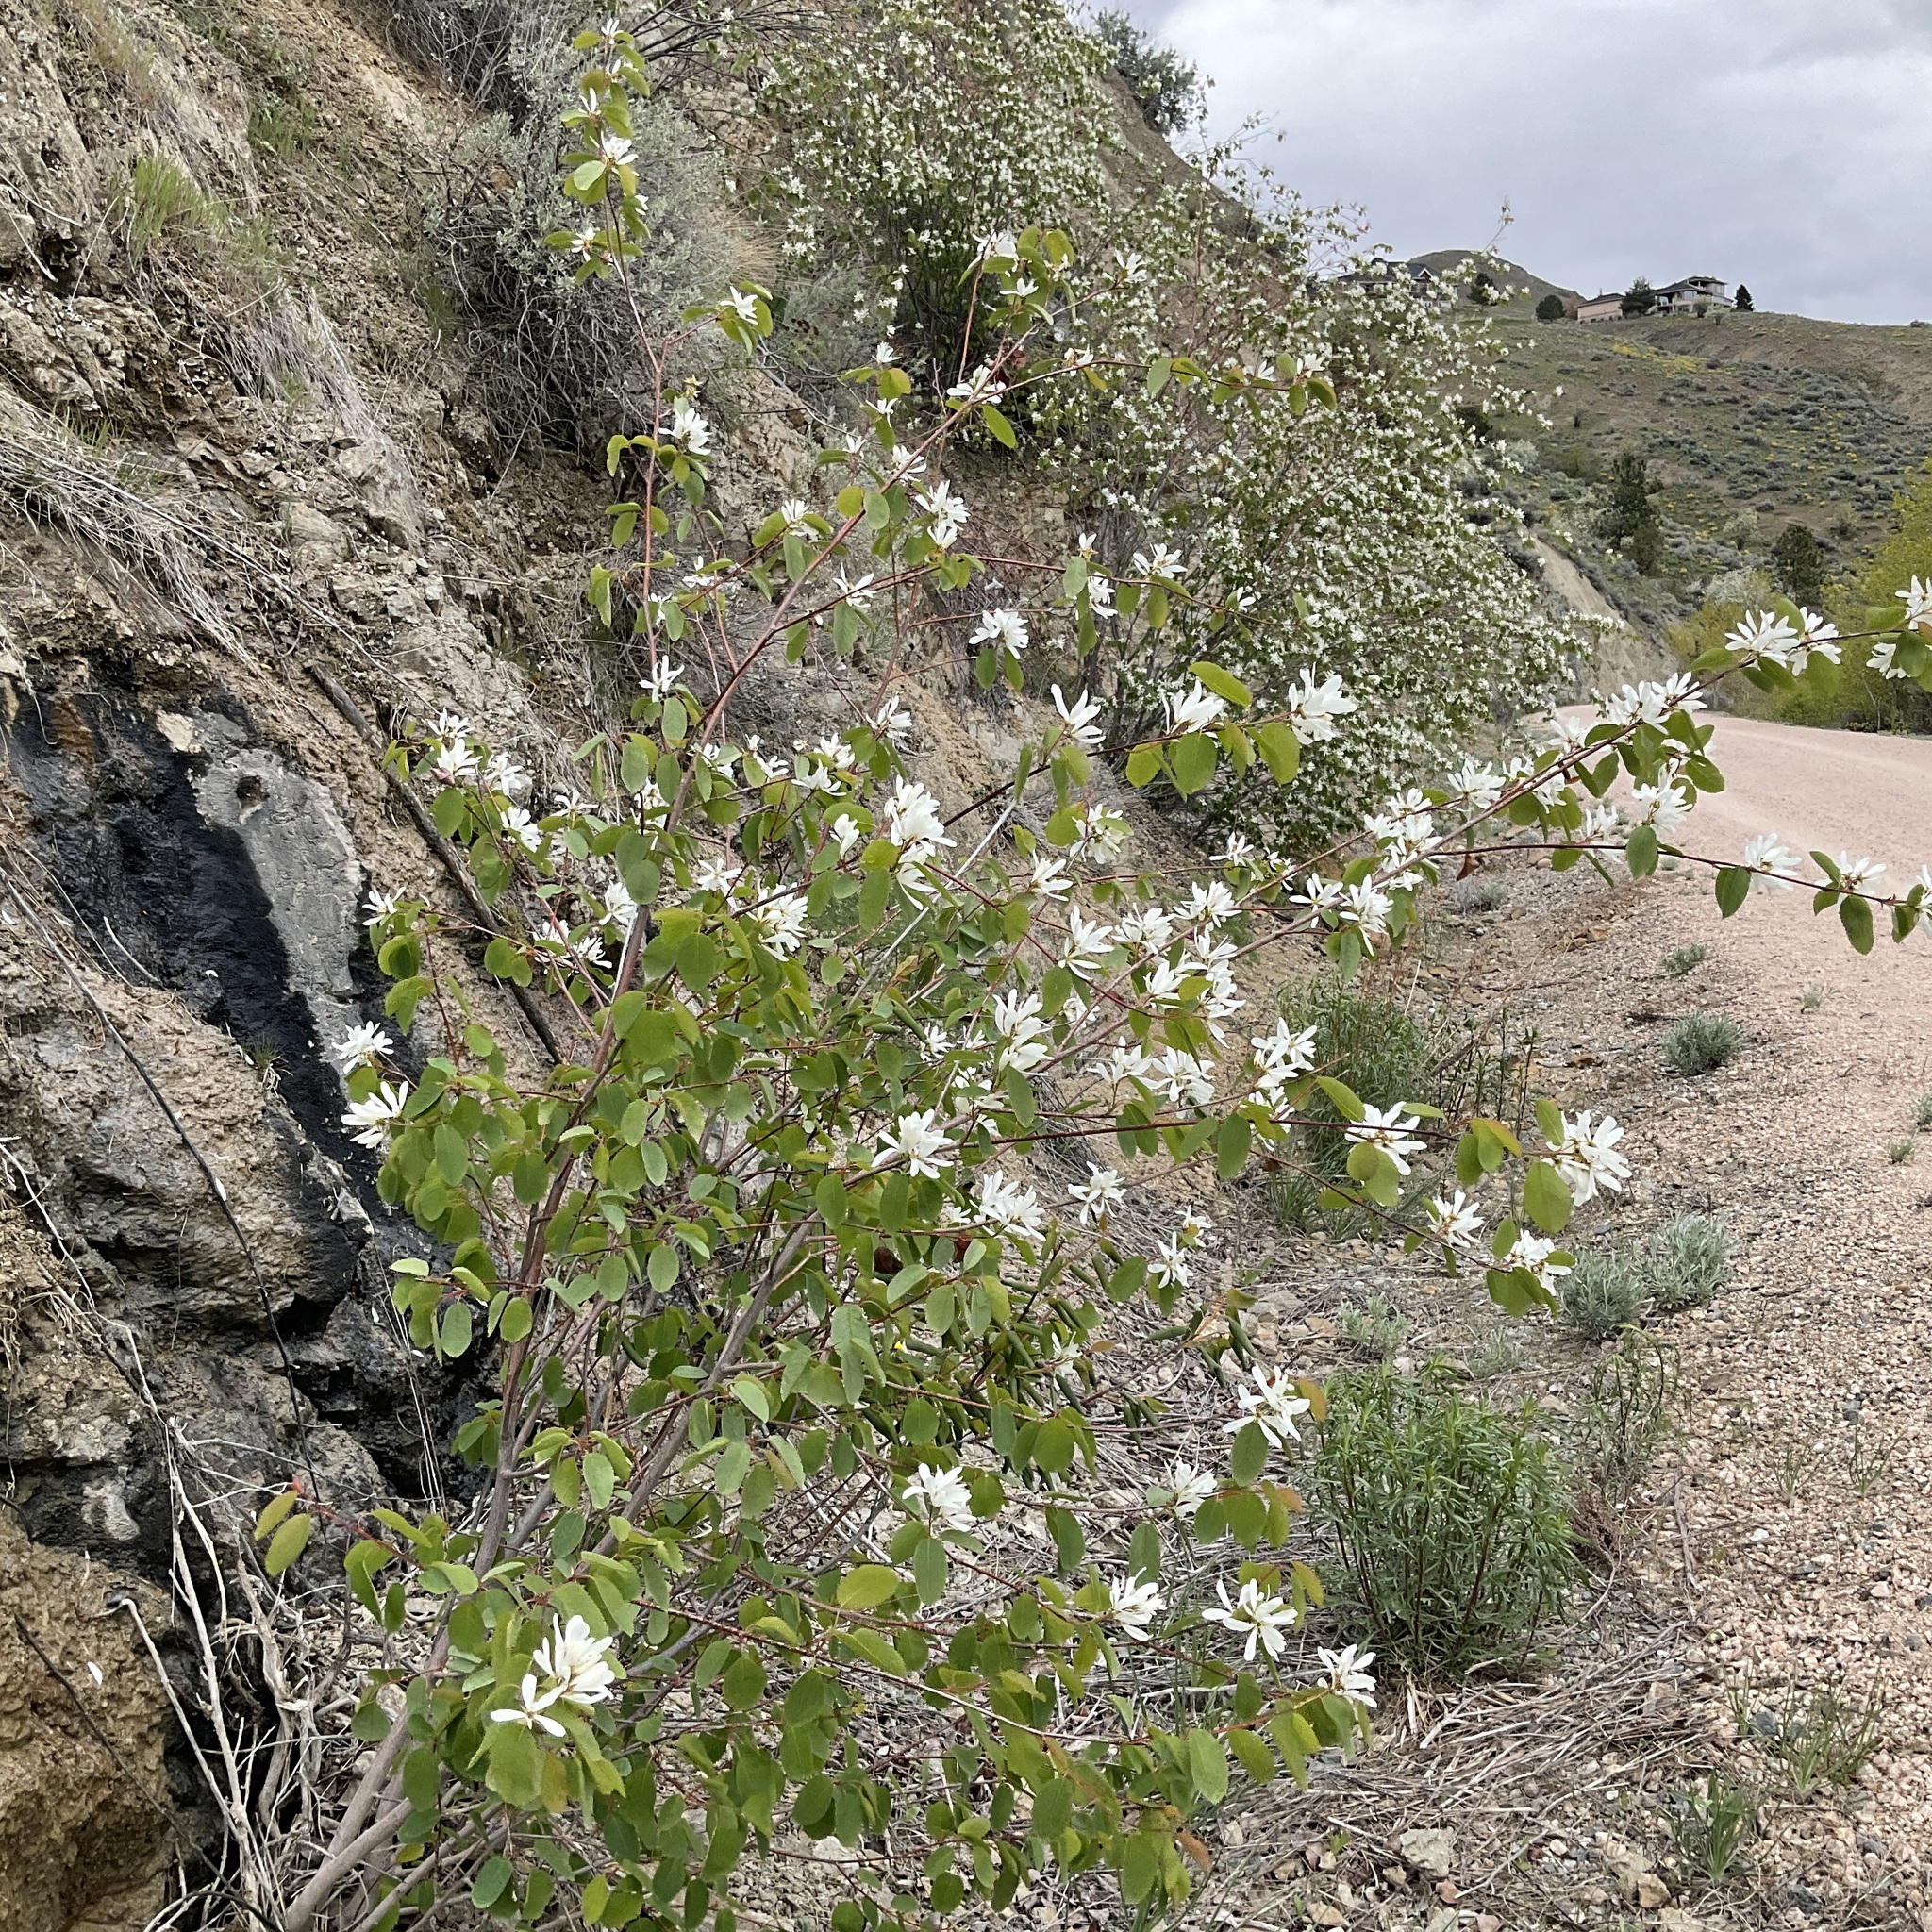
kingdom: Plantae
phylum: Tracheophyta
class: Magnoliopsida
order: Rosales
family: Rosaceae
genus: Amelanchier
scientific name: Amelanchier alnifolia
